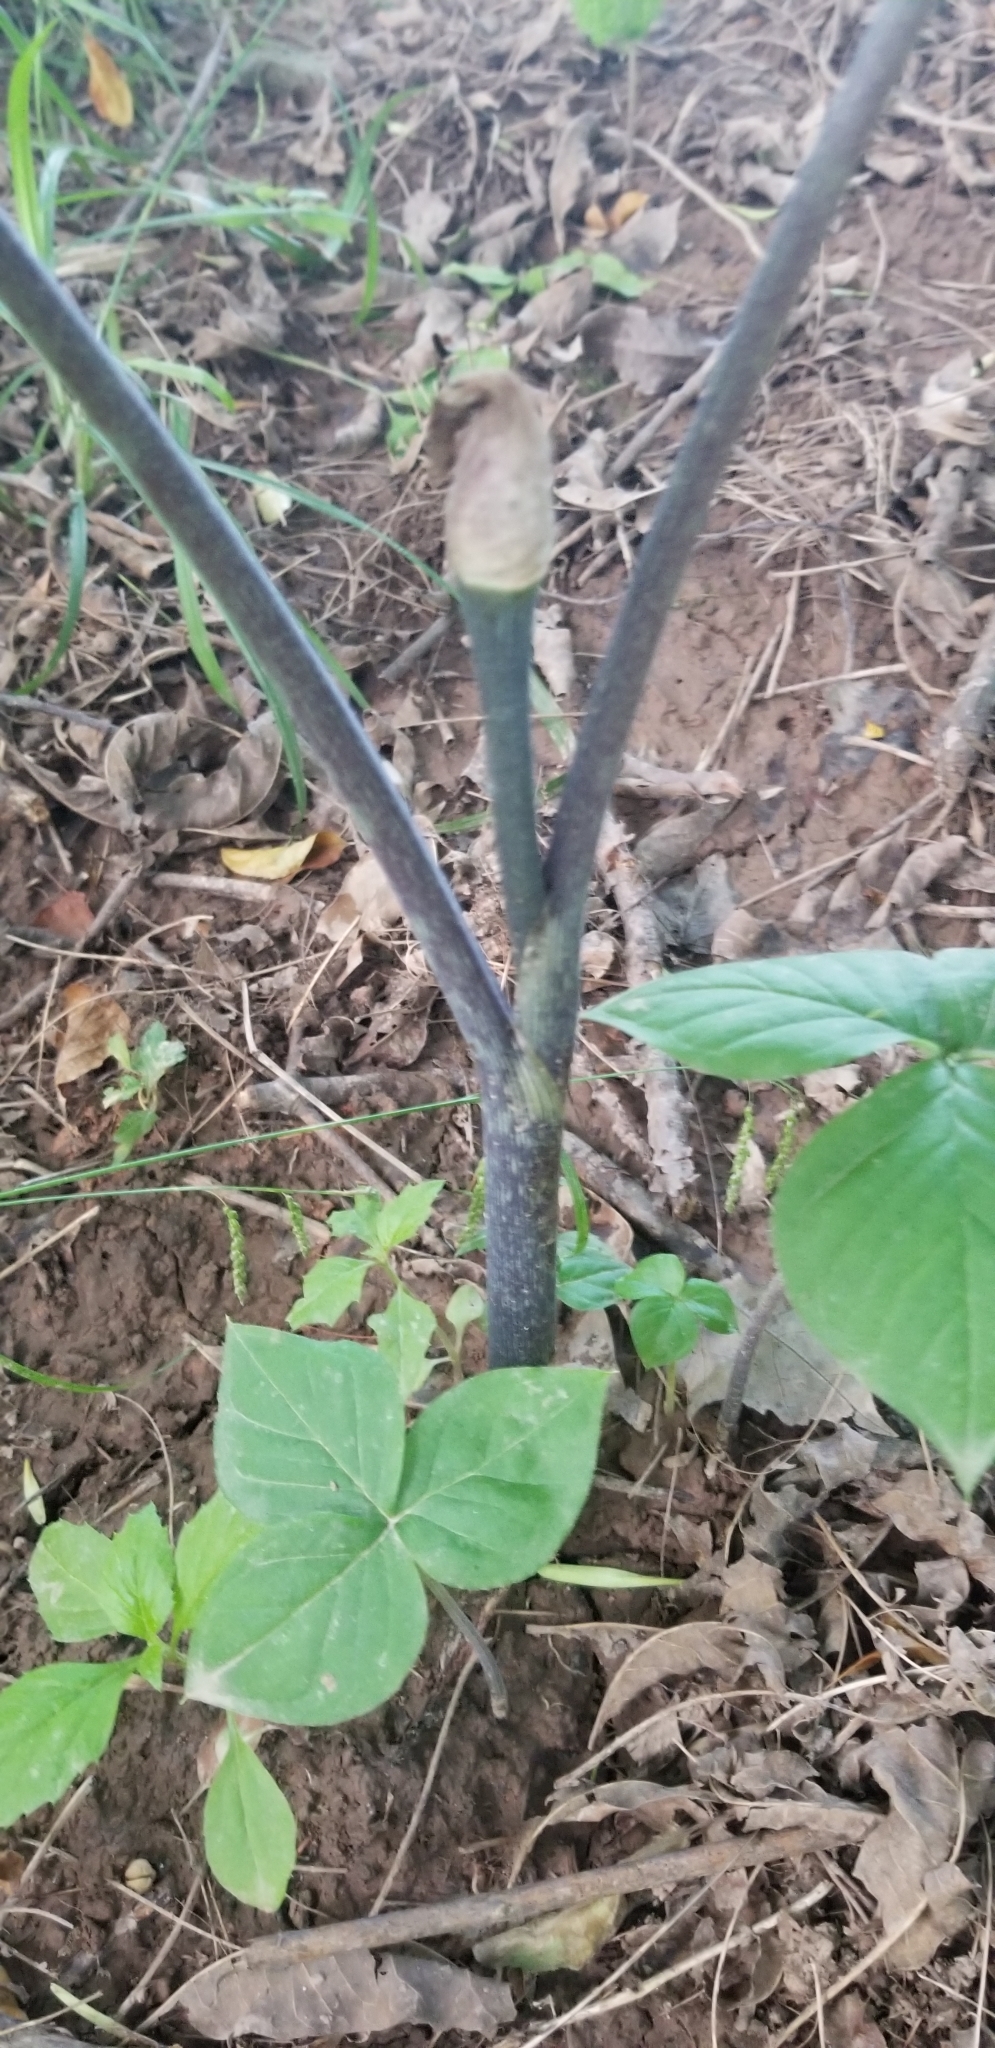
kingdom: Plantae
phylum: Tracheophyta
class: Liliopsida
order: Alismatales
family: Araceae
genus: Arisaema
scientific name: Arisaema triphyllum
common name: Jack-in-the-pulpit
